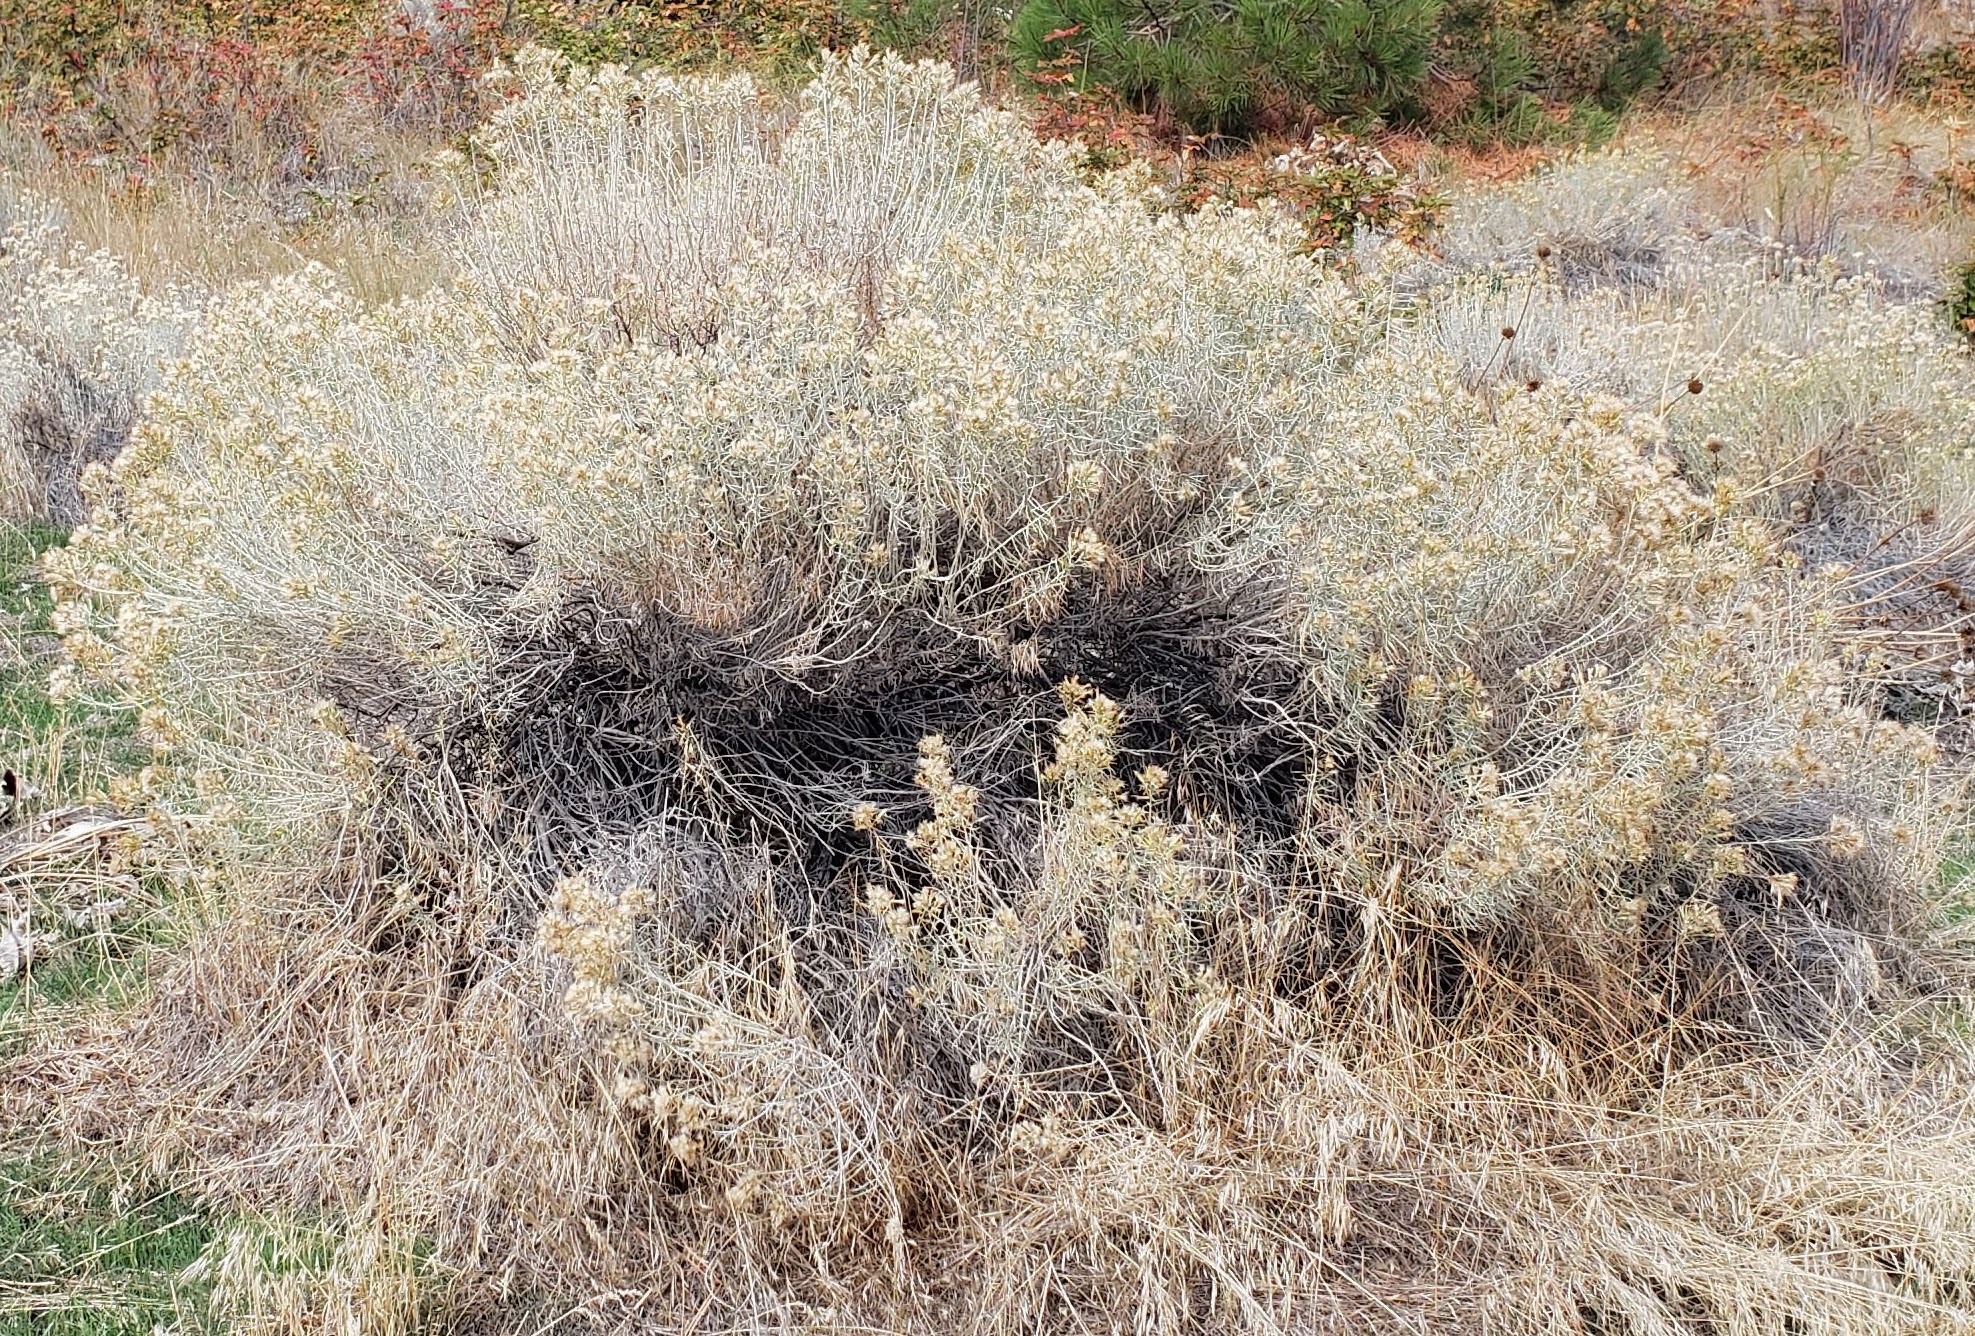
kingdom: Plantae
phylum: Tracheophyta
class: Magnoliopsida
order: Asterales
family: Asteraceae
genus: Ericameria
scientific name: Ericameria nauseosa
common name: Rubber rabbitbrush
